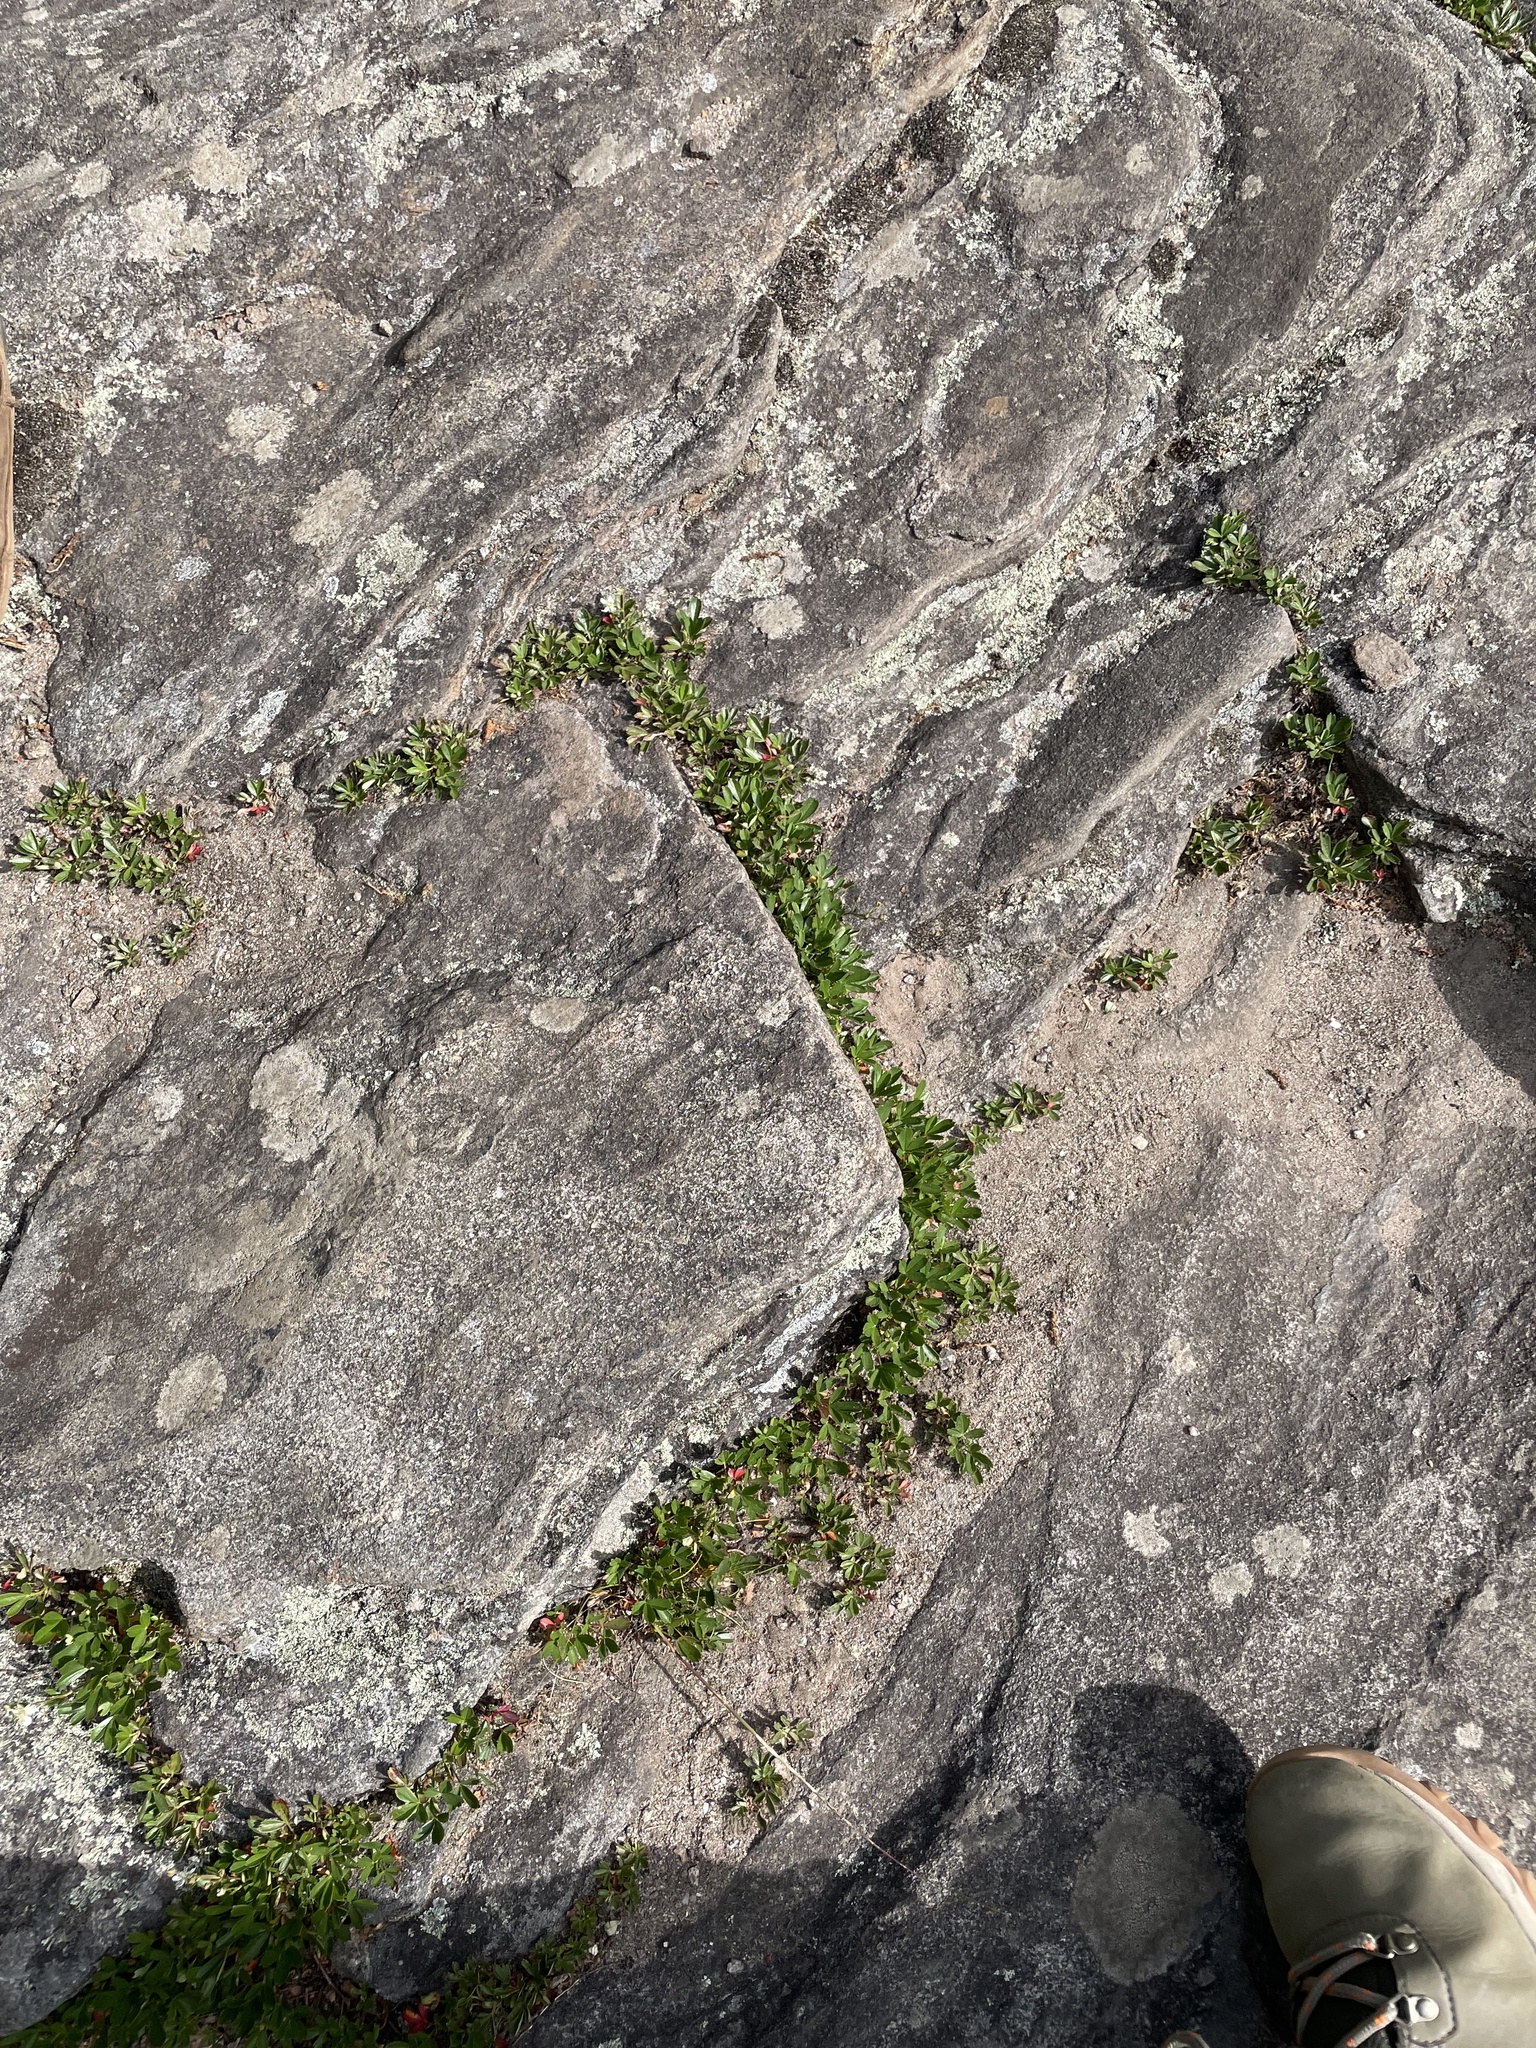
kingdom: Plantae
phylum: Tracheophyta
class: Magnoliopsida
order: Rosales
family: Rosaceae
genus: Sibbaldia
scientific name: Sibbaldia tridentata
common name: Three-toothed cinquefoil
